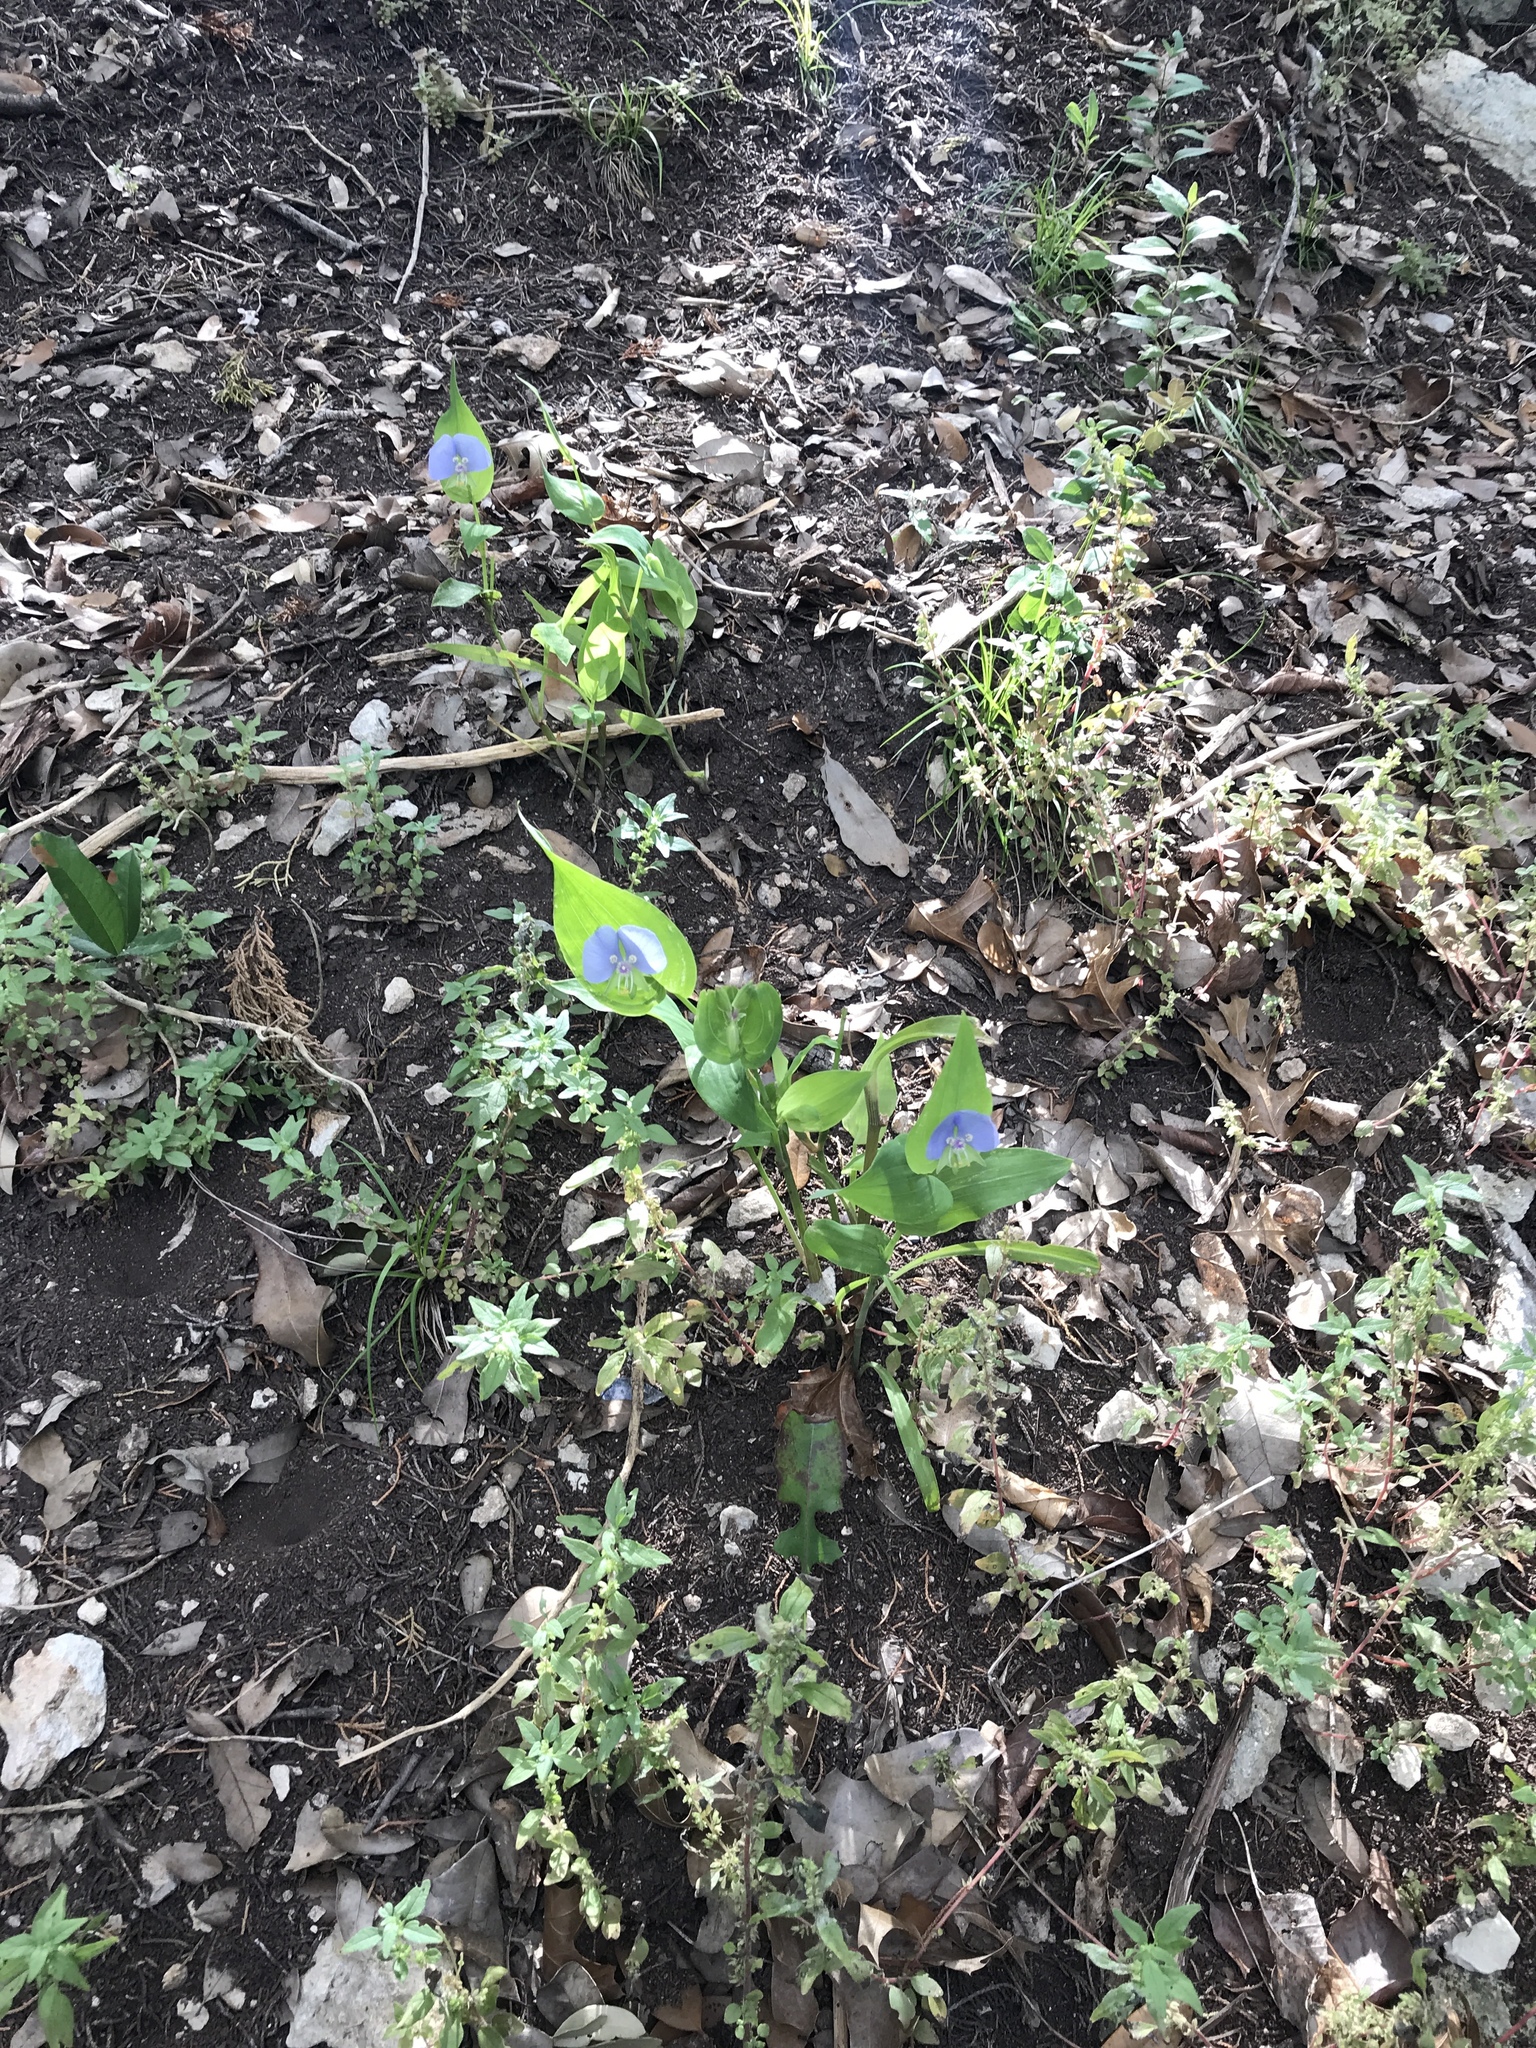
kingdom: Plantae
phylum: Tracheophyta
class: Liliopsida
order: Commelinales
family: Commelinaceae
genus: Tinantia
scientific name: Tinantia anomala
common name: False dayflower
